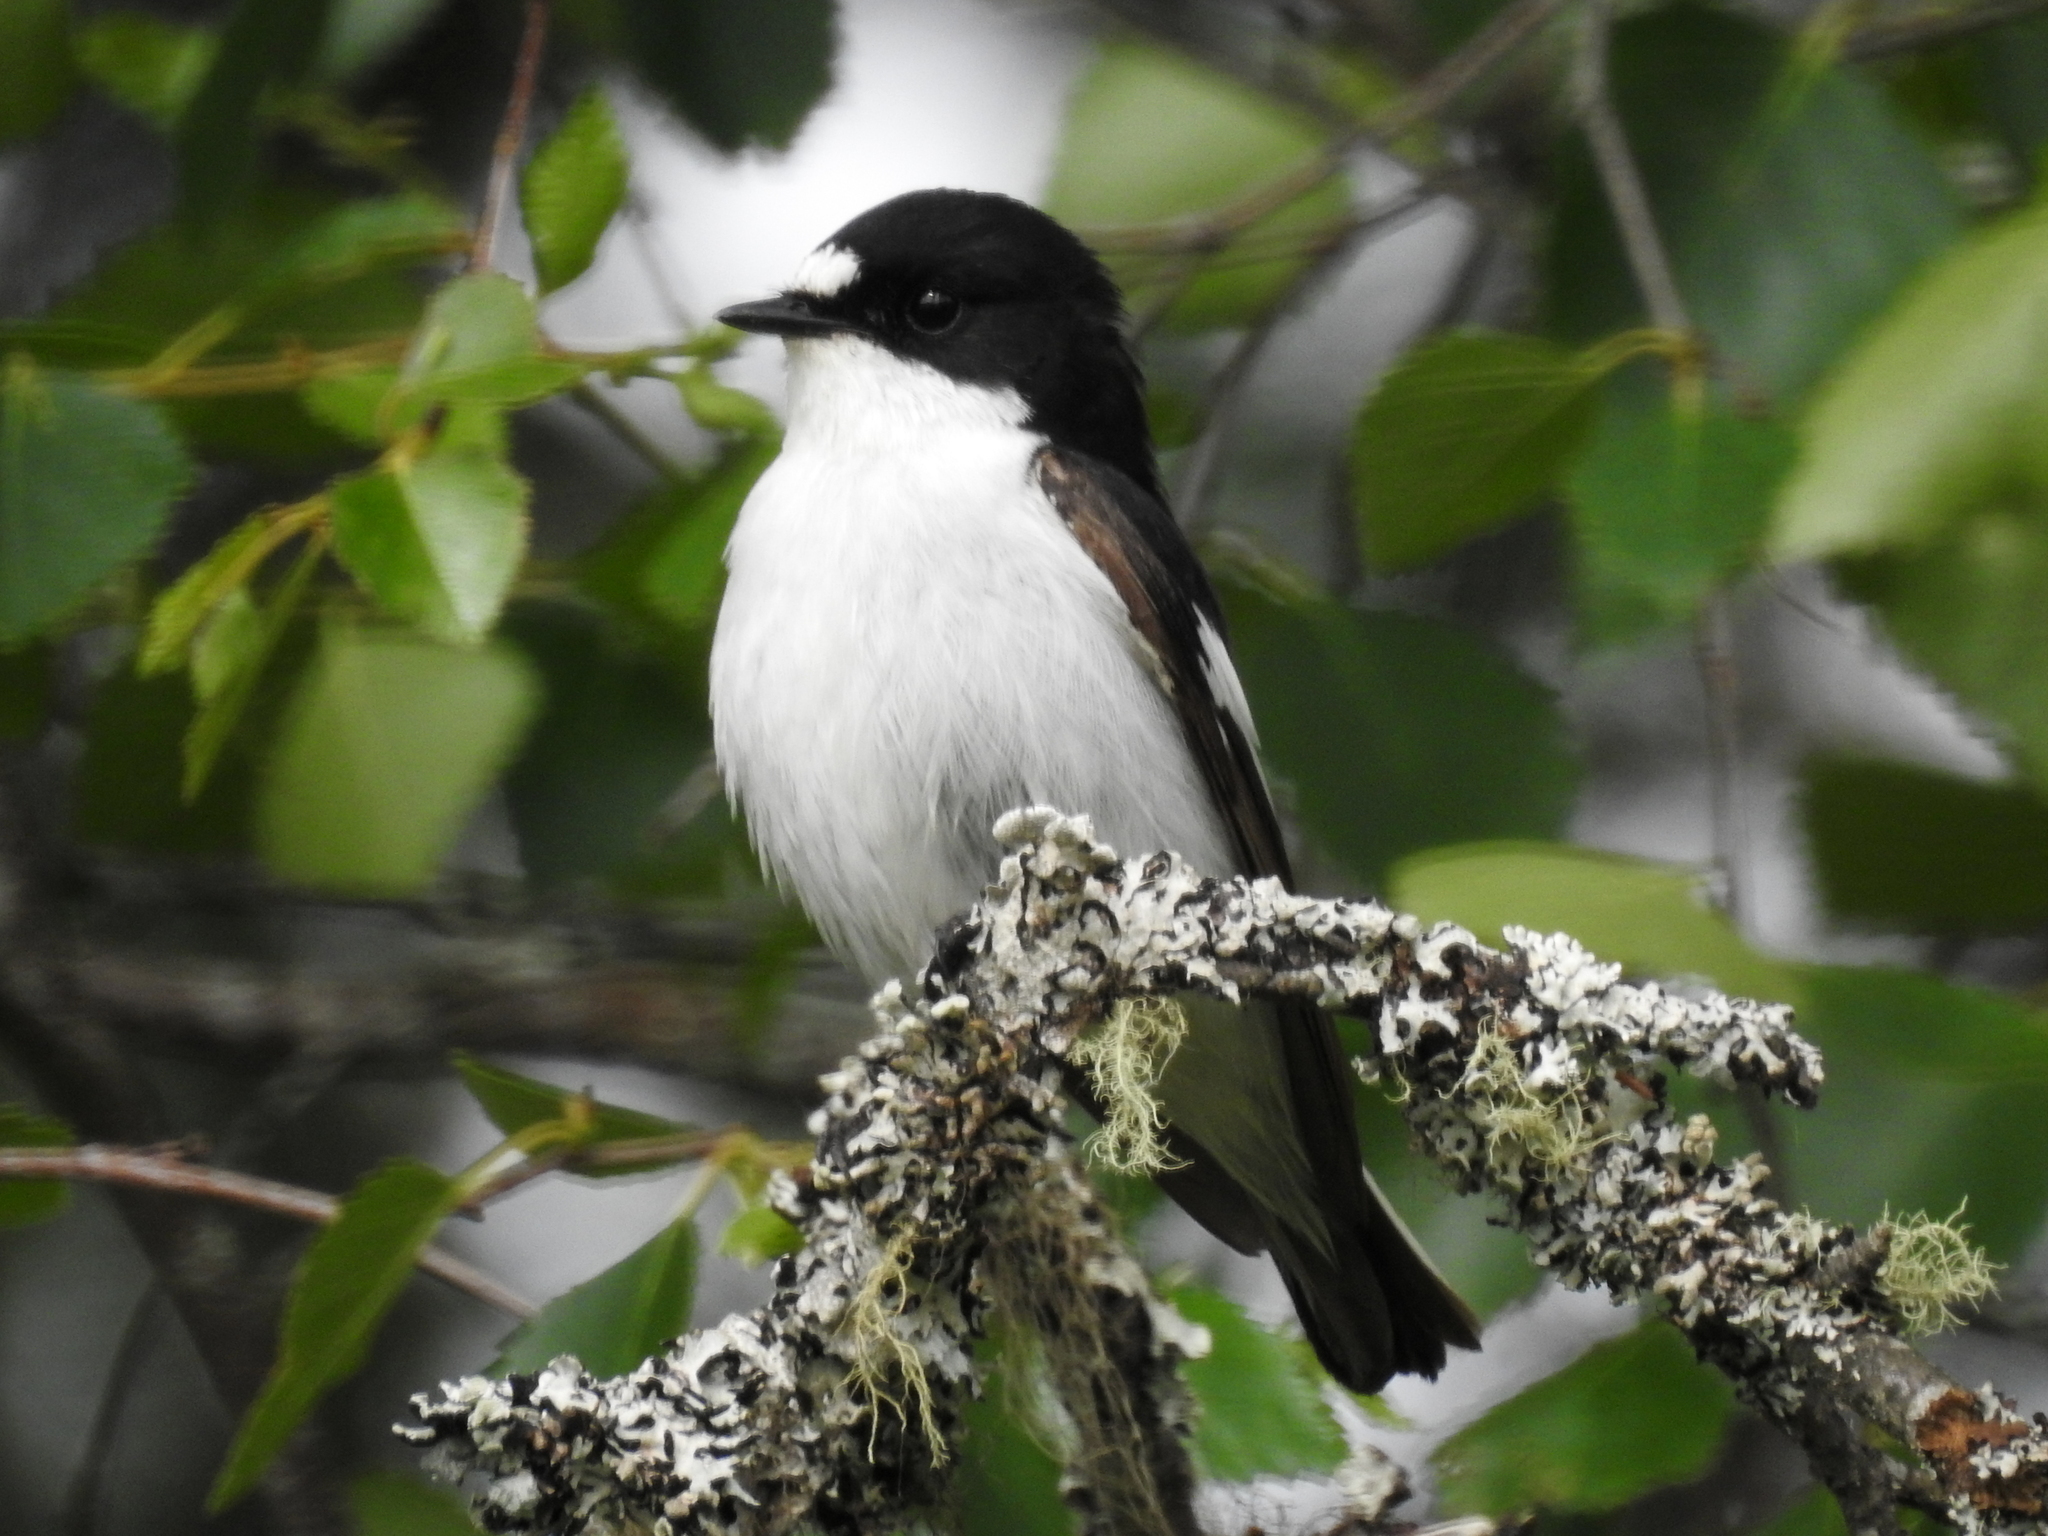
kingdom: Animalia
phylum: Chordata
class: Aves
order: Passeriformes
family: Muscicapidae
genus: Ficedula
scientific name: Ficedula hypoleuca
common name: European pied flycatcher
